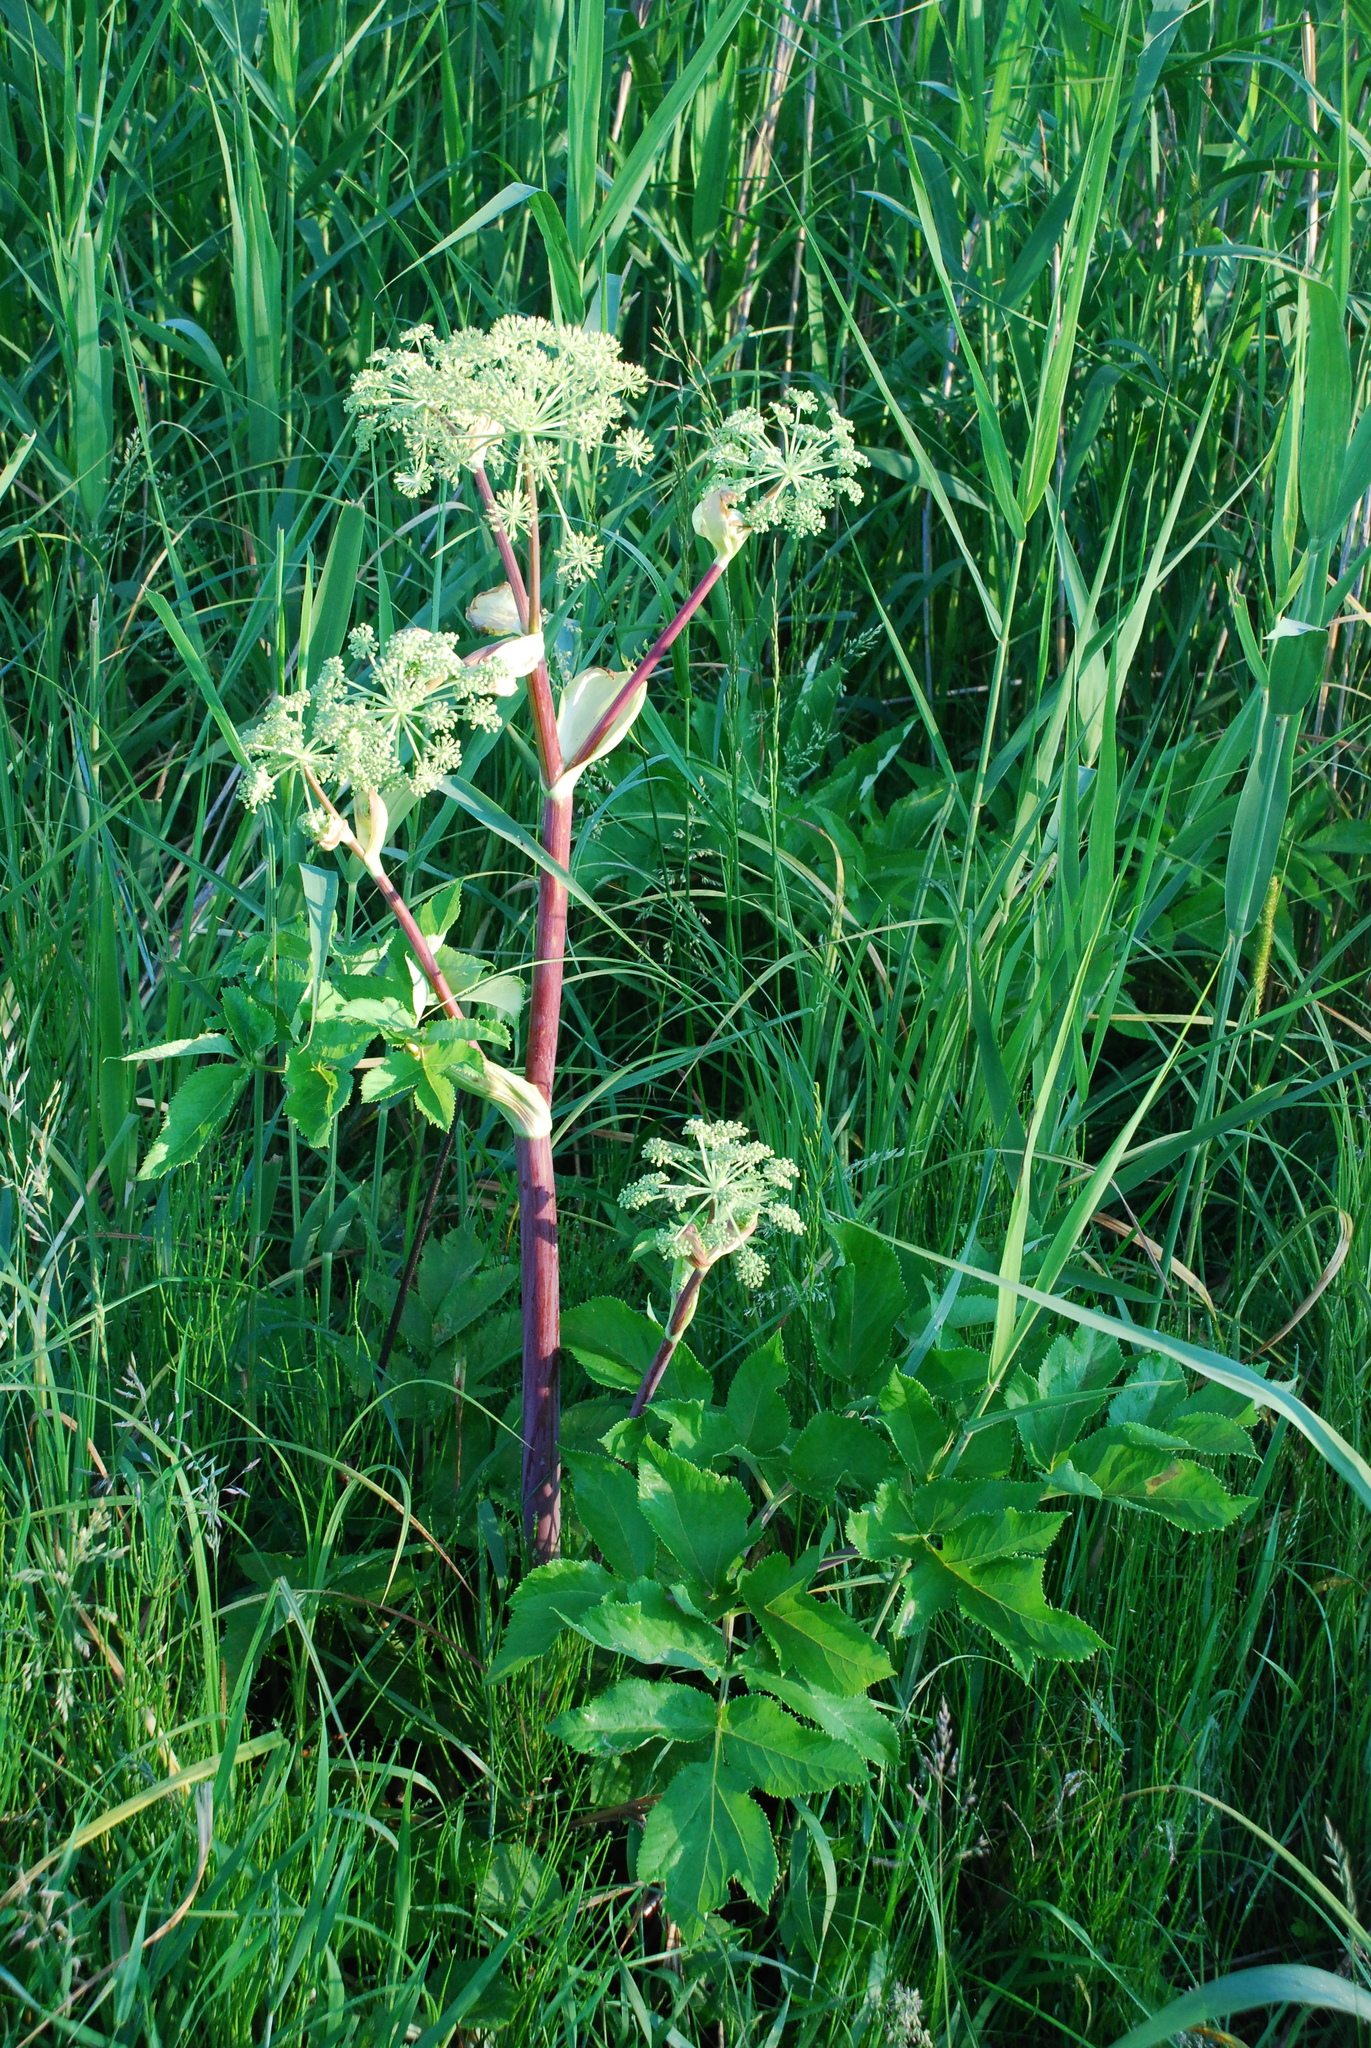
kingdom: Plantae
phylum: Tracheophyta
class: Magnoliopsida
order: Apiales
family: Apiaceae
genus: Angelica
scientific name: Angelica archangelica
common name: Garden angelica
